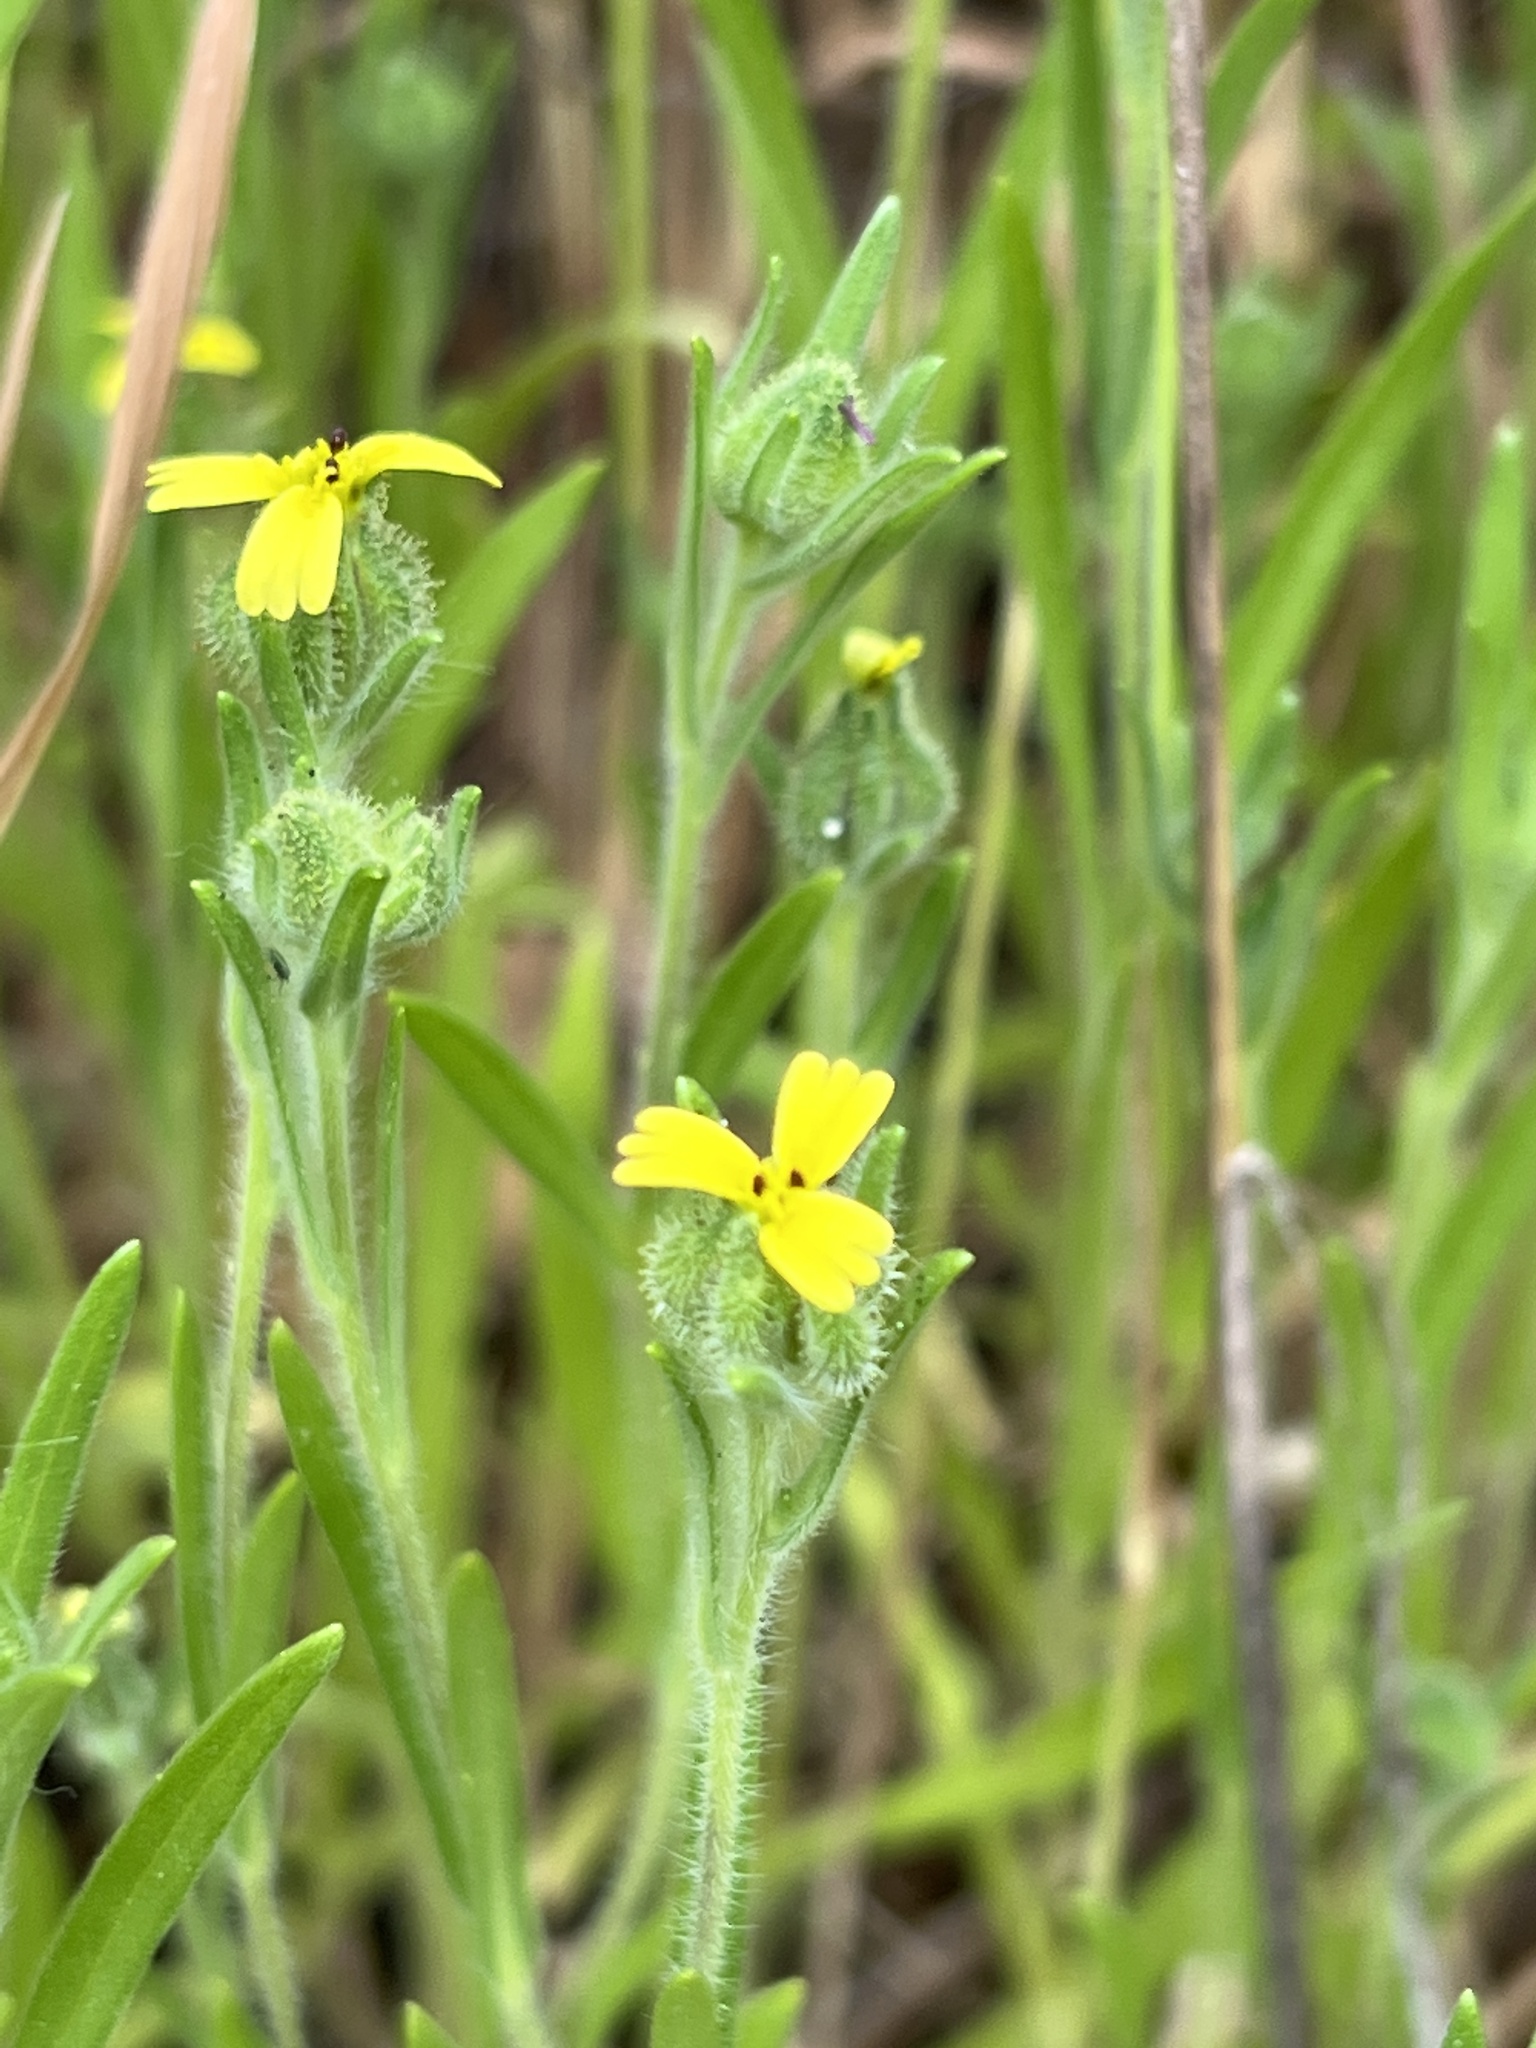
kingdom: Plantae
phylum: Tracheophyta
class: Magnoliopsida
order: Asterales
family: Asteraceae
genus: Madia
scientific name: Madia gracilis
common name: Grassy tarweed
